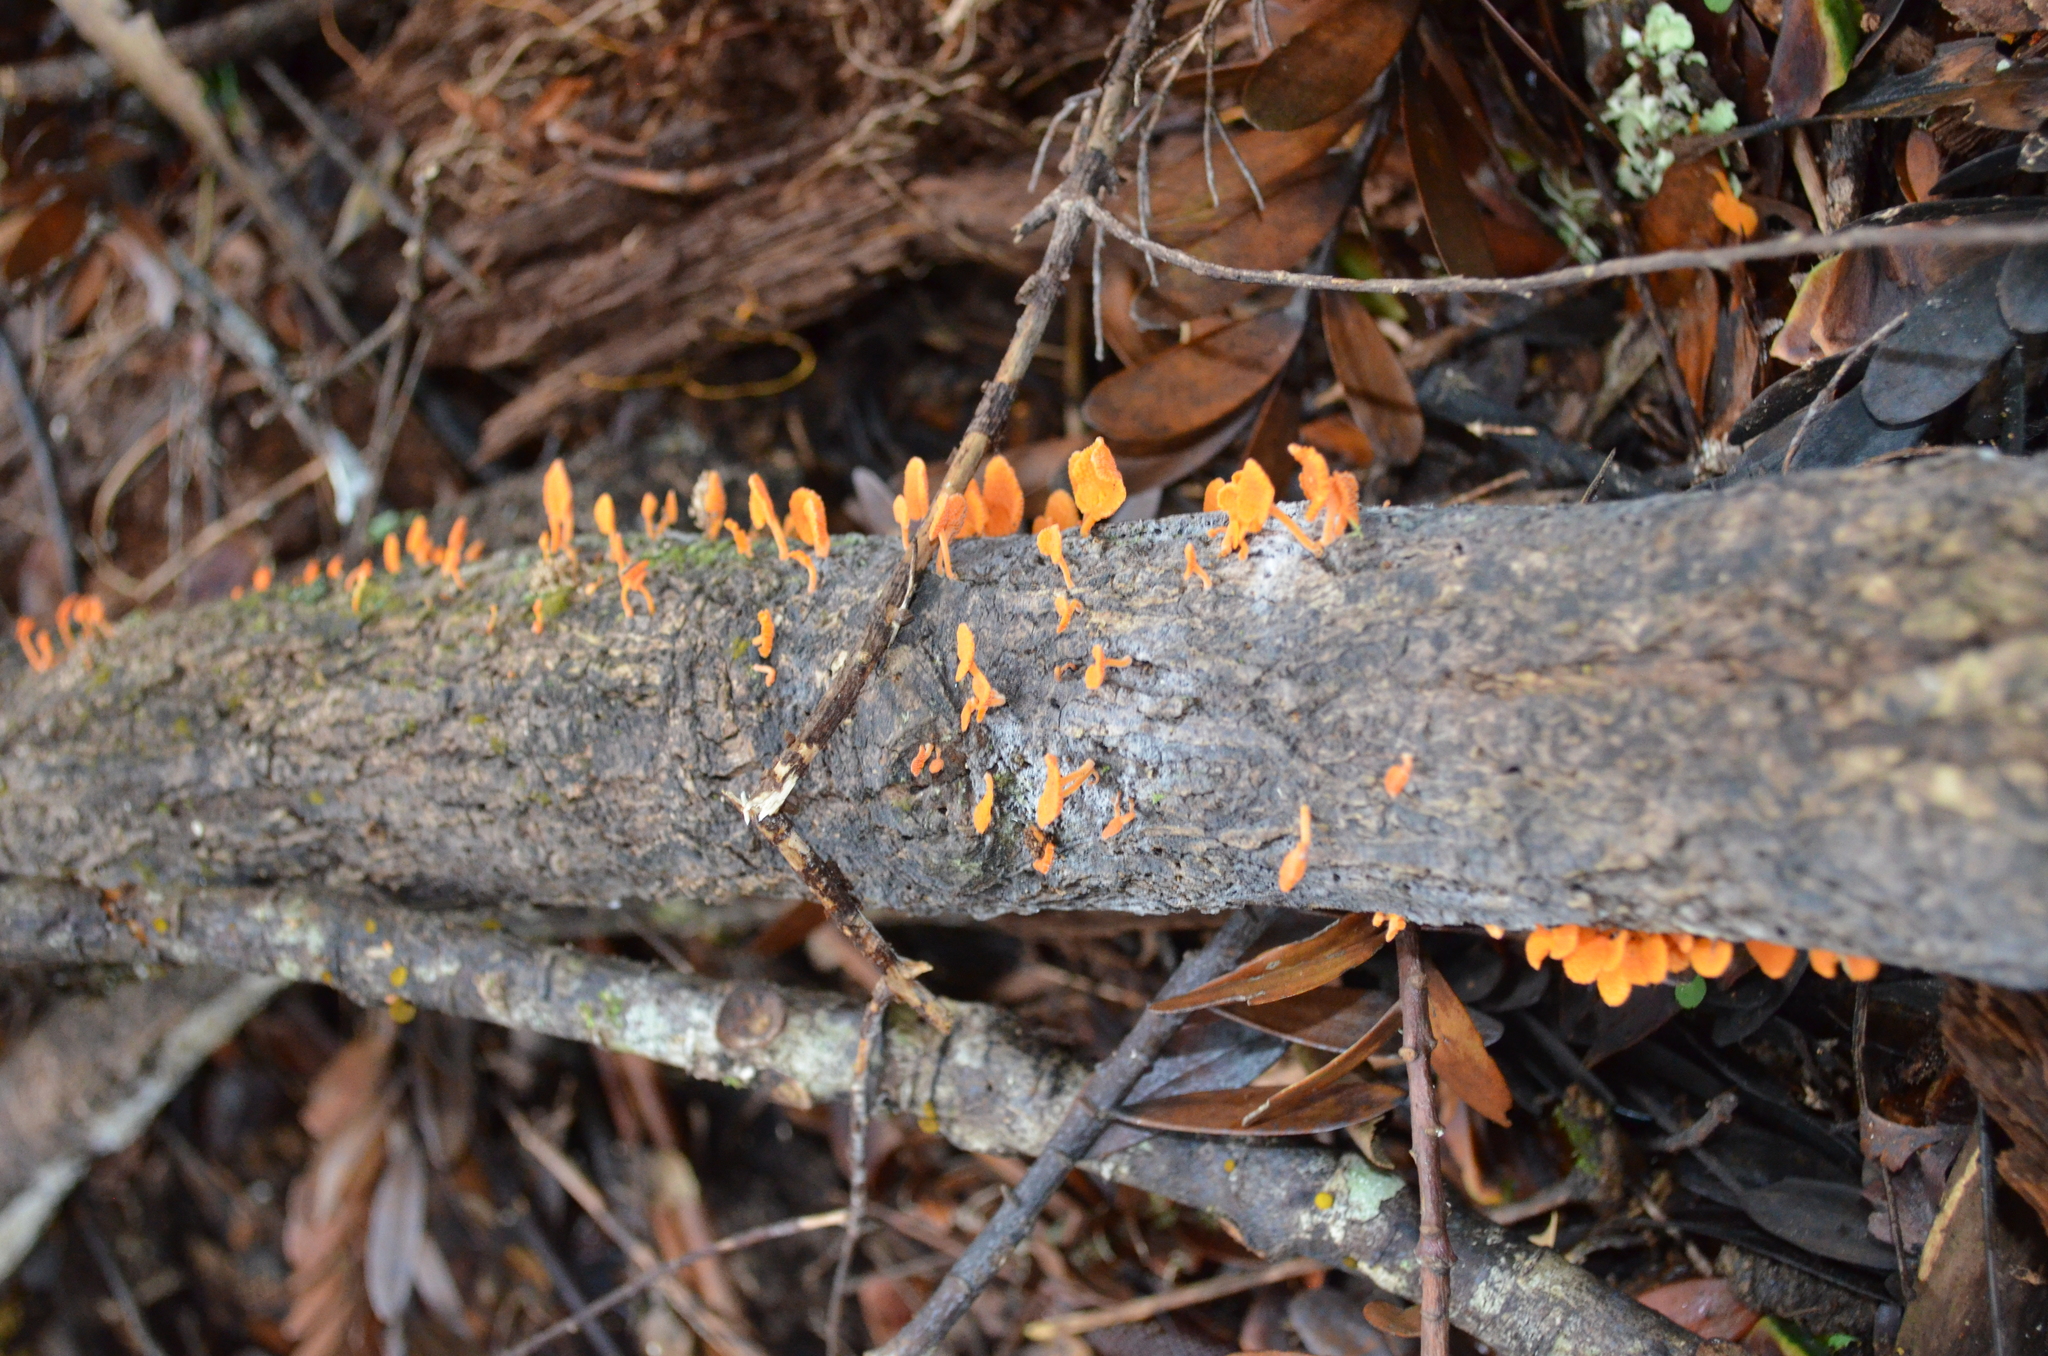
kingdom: Fungi
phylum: Basidiomycota
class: Agaricomycetes
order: Agaricales
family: Mycenaceae
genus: Favolaschia
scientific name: Favolaschia claudopus
